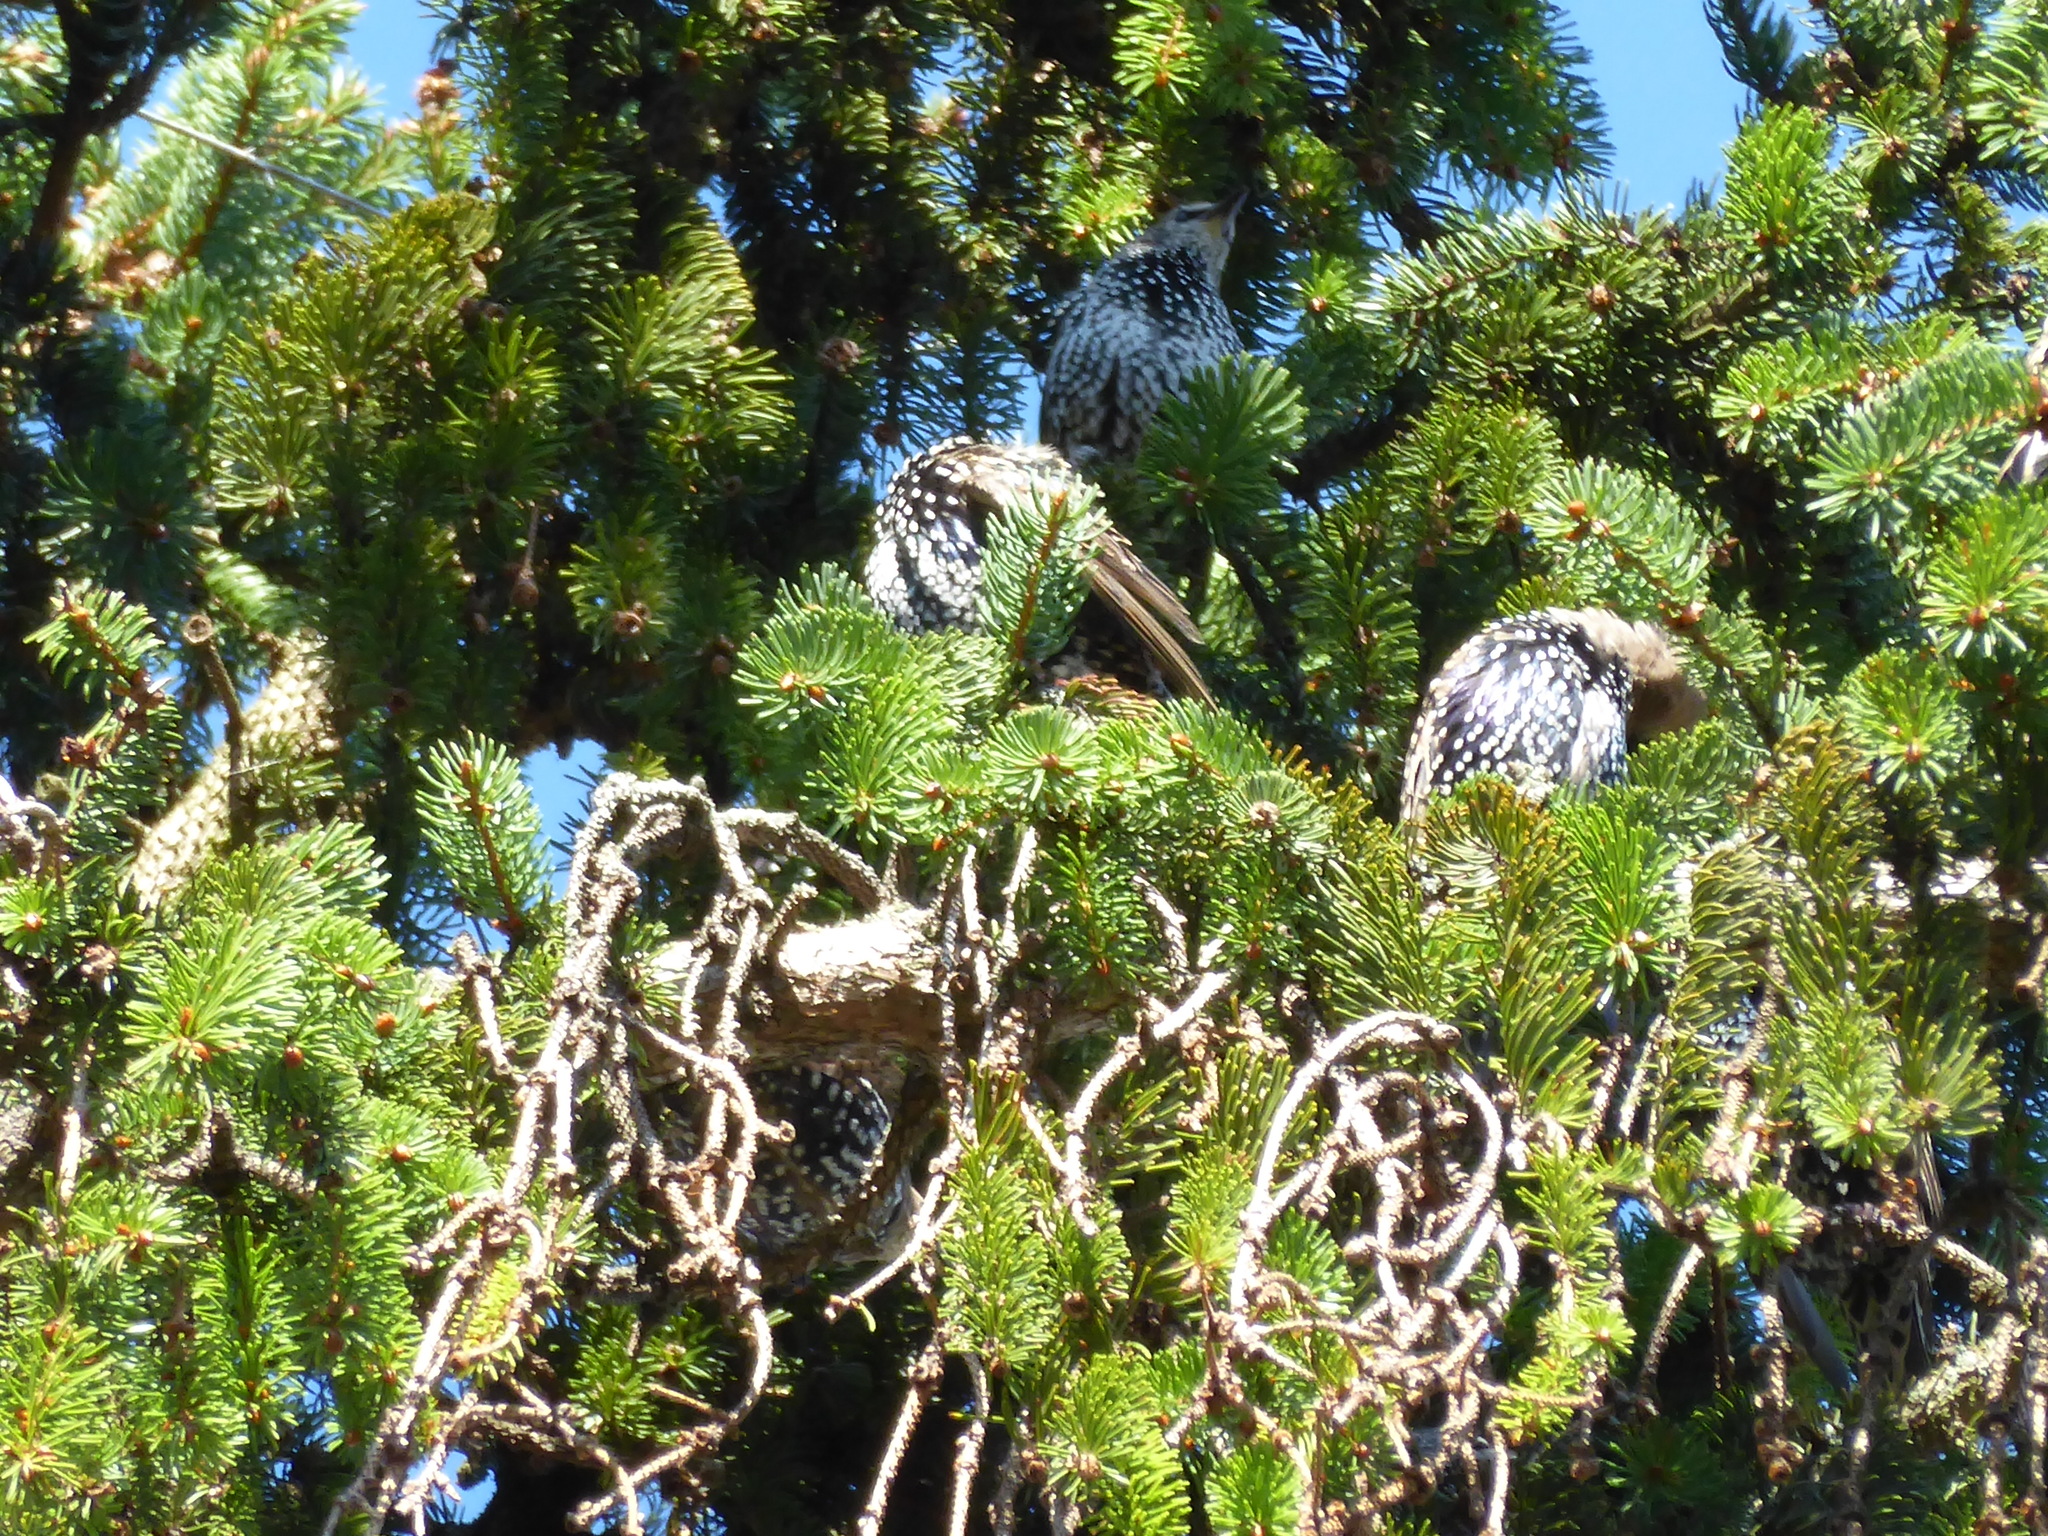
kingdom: Animalia
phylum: Chordata
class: Aves
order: Passeriformes
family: Sturnidae
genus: Sturnus
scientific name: Sturnus vulgaris
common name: Common starling
